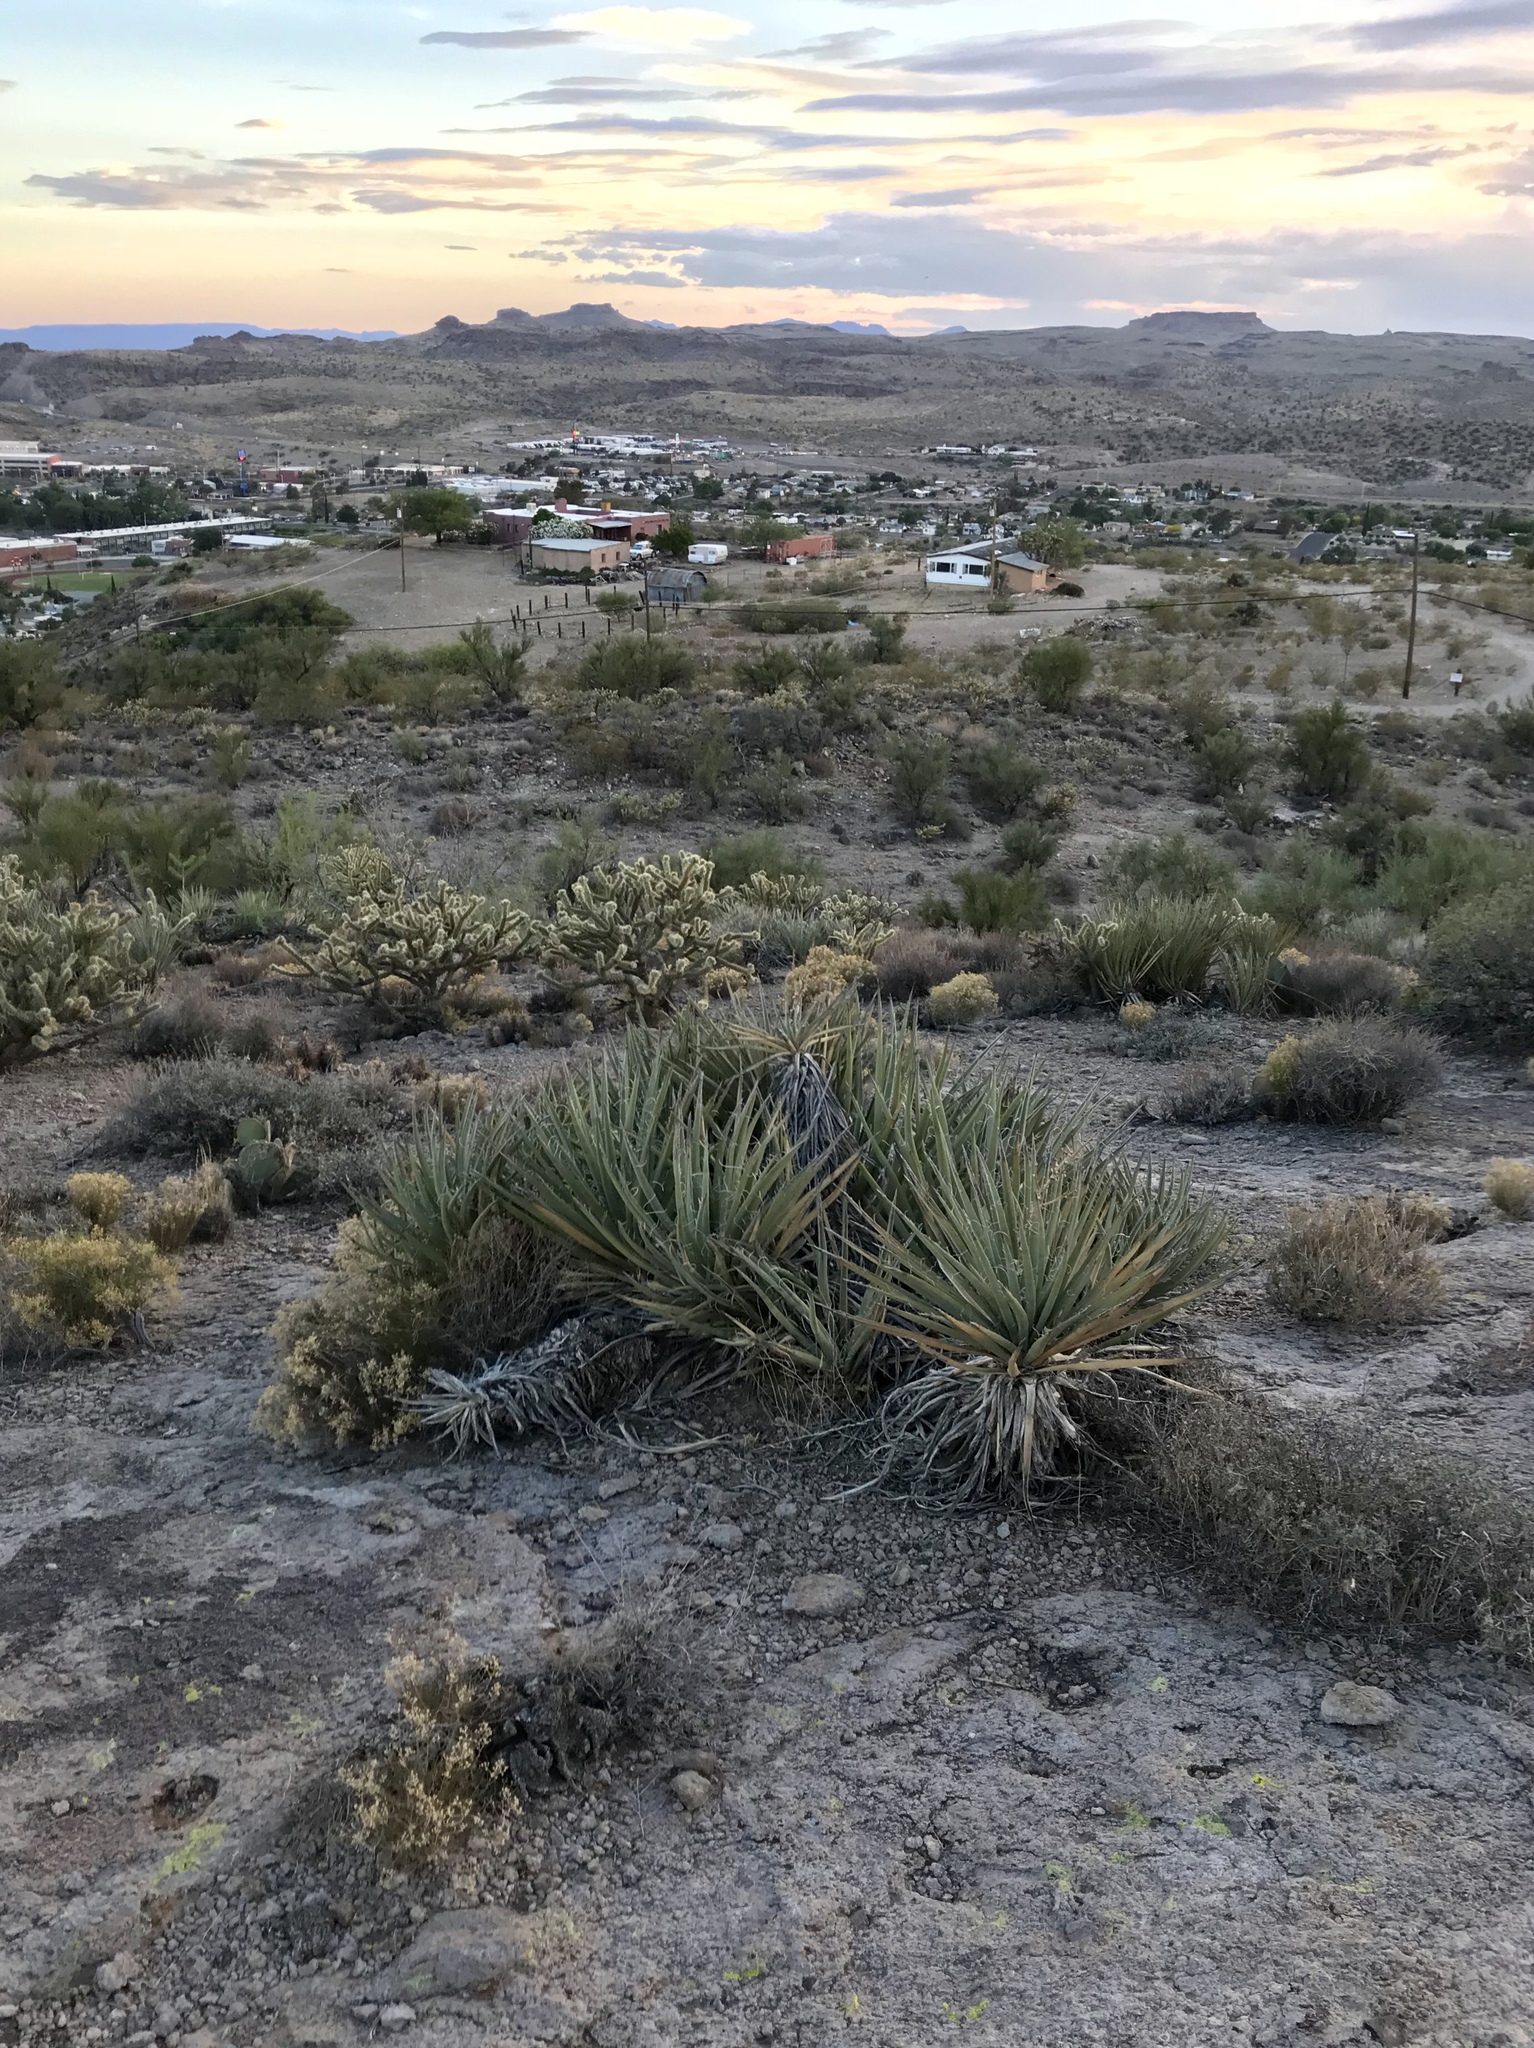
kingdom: Plantae
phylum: Tracheophyta
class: Liliopsida
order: Asparagales
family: Asparagaceae
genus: Yucca
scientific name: Yucca baccata
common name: Banana yucca
